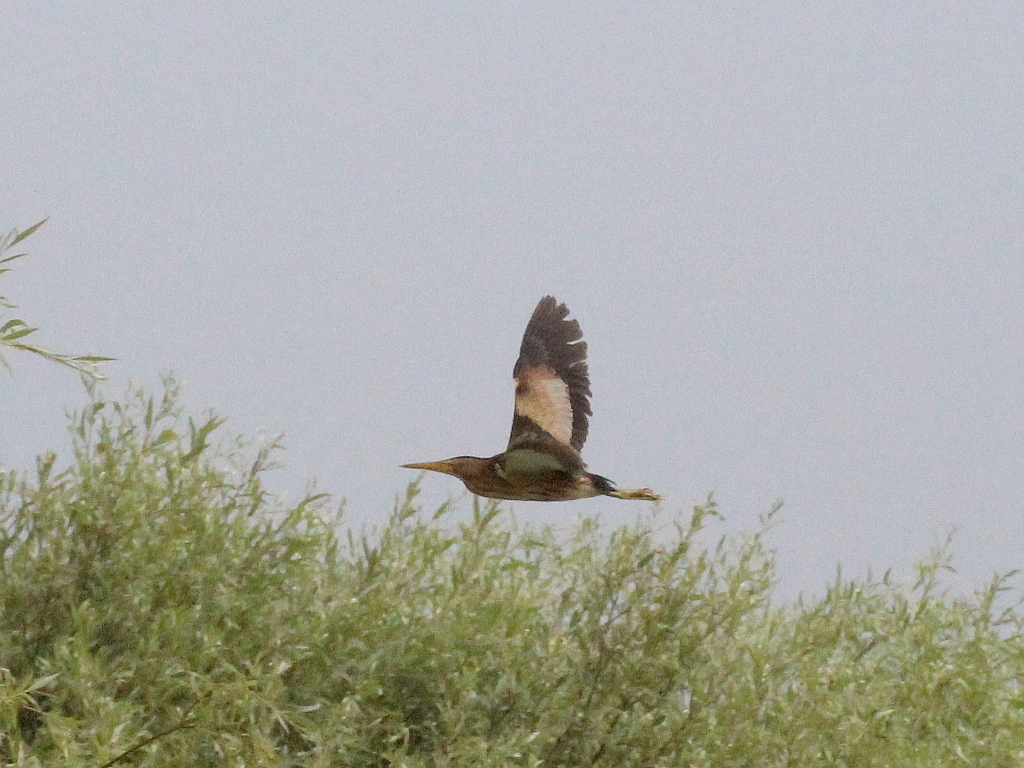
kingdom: Animalia
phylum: Chordata
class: Aves
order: Pelecaniformes
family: Ardeidae
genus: Ixobrychus
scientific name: Ixobrychus minutus
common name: Little bittern
